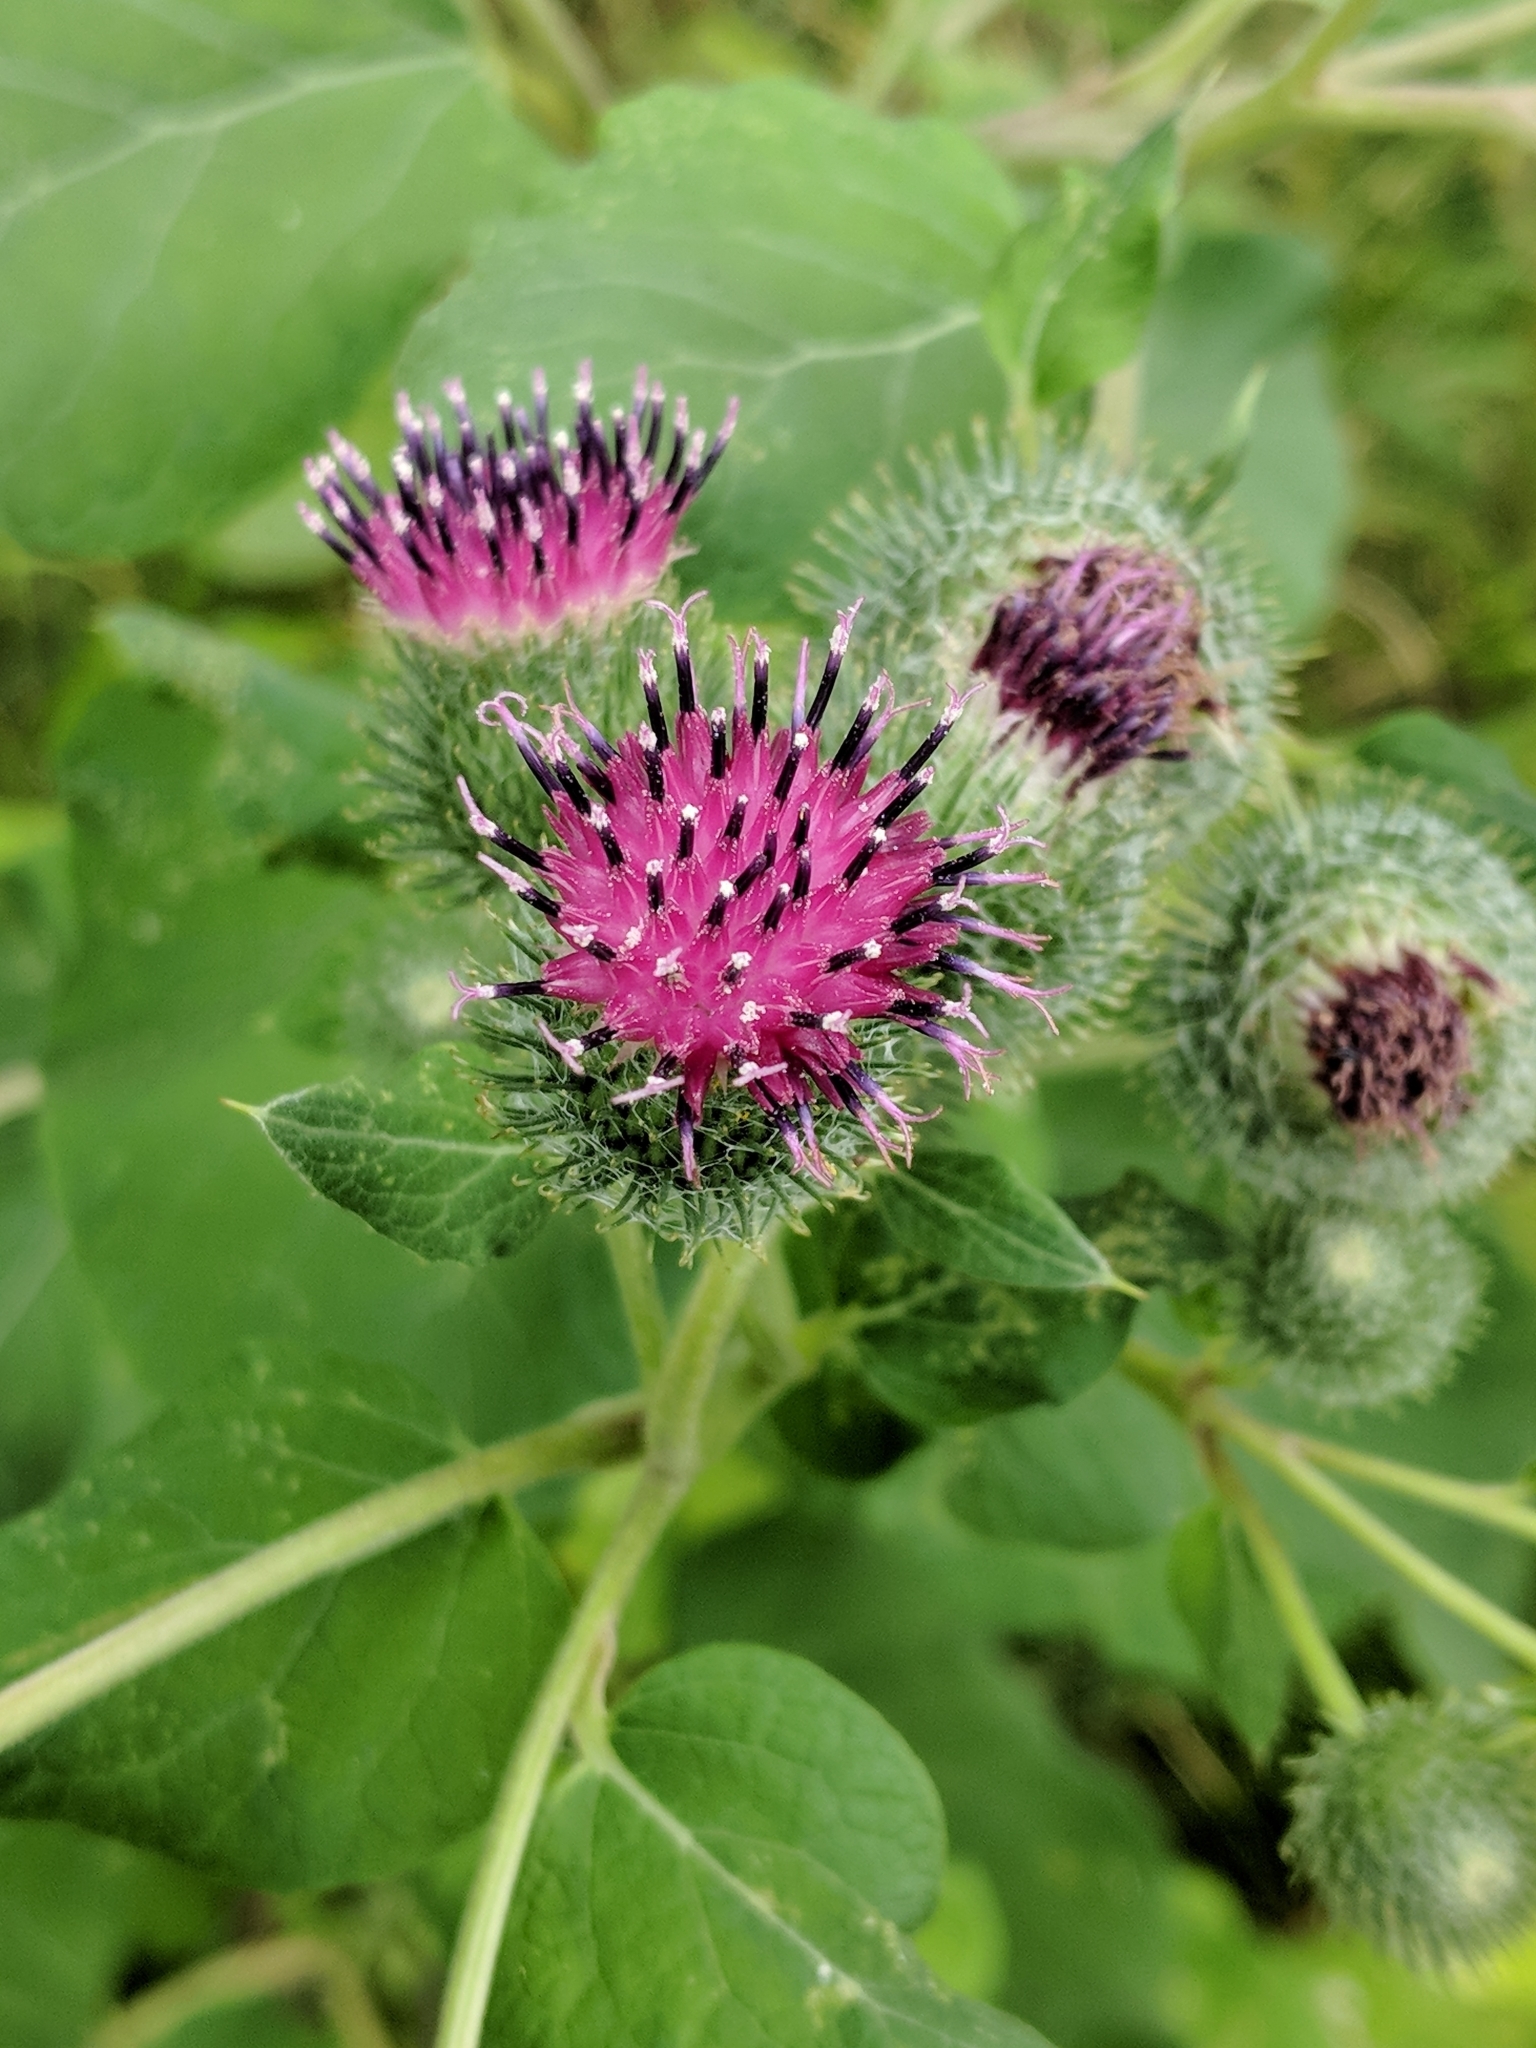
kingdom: Plantae
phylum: Tracheophyta
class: Magnoliopsida
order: Asterales
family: Asteraceae
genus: Arctium
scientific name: Arctium minus
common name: Lesser burdock
